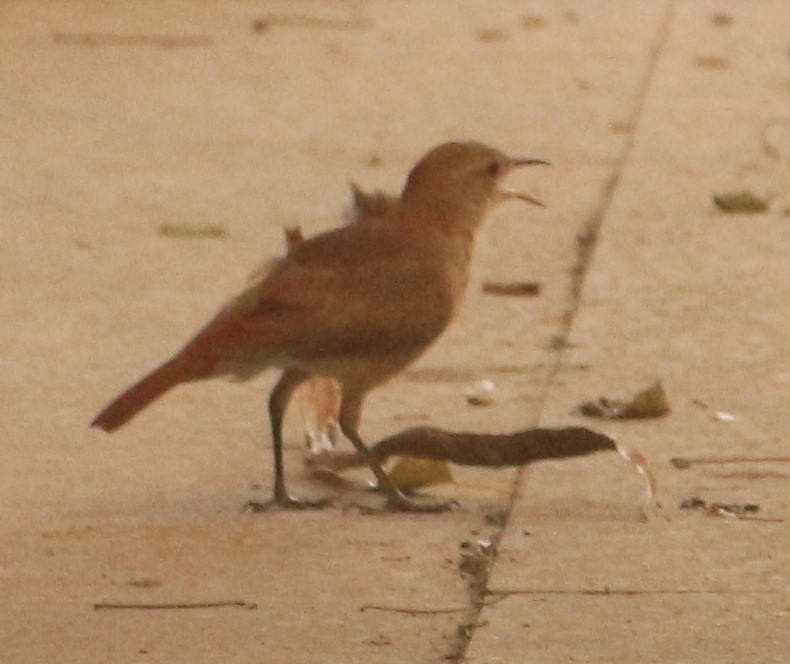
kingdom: Animalia
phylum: Chordata
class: Aves
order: Passeriformes
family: Furnariidae
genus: Furnarius
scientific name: Furnarius rufus
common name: Rufous hornero
